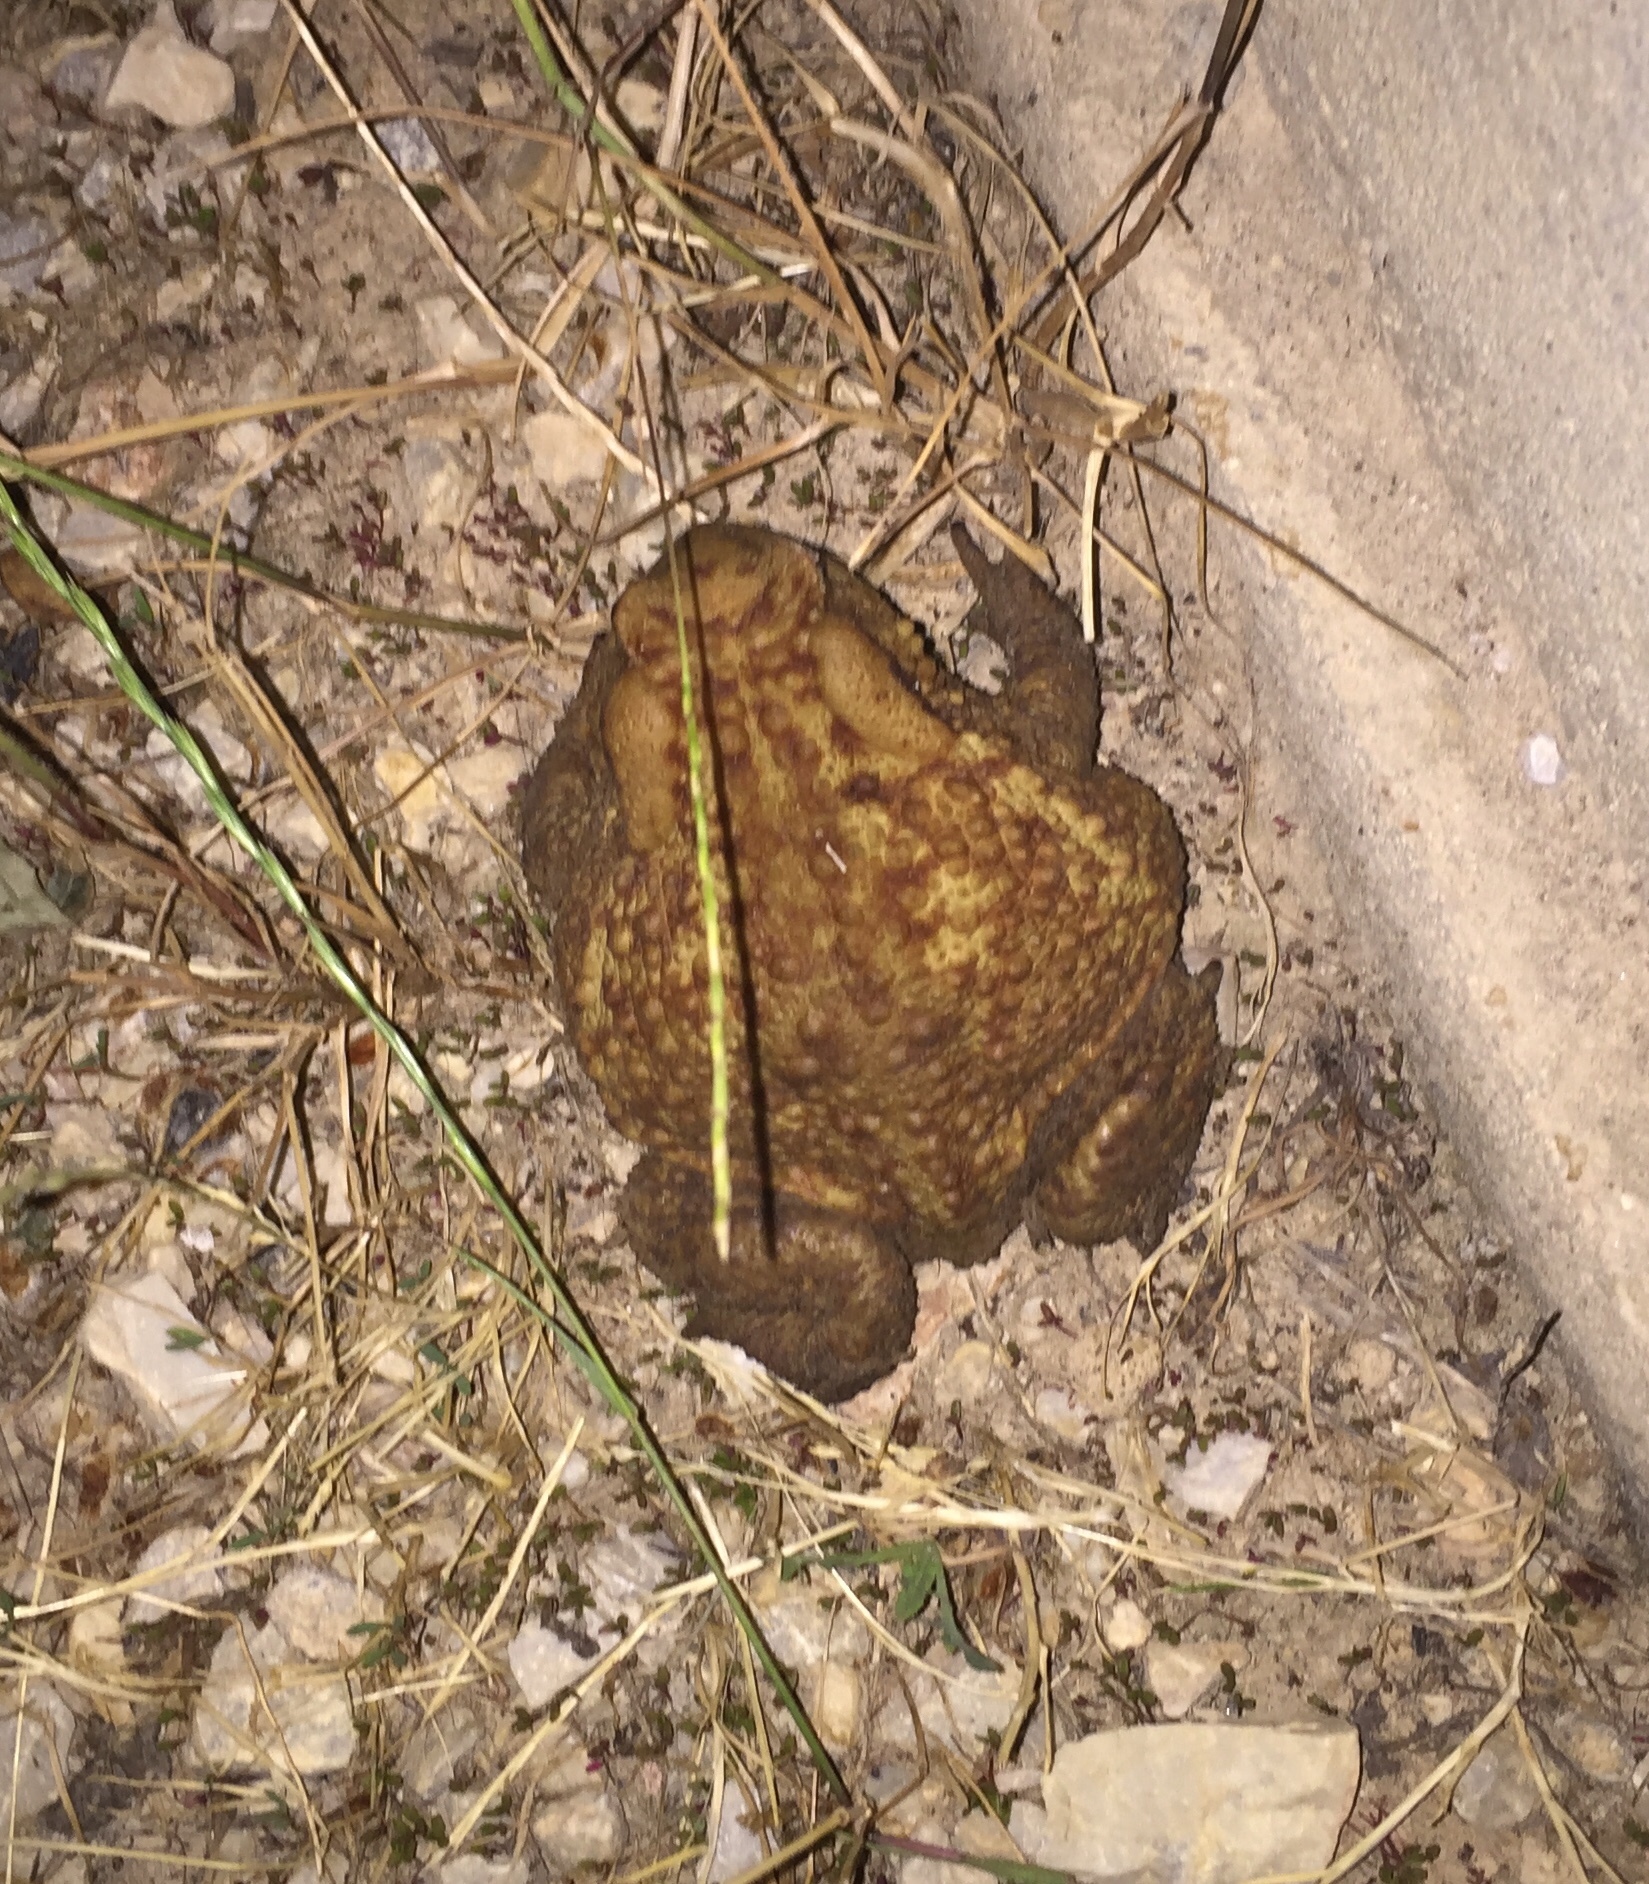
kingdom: Animalia
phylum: Chordata
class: Amphibia
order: Anura
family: Bufonidae
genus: Bufo
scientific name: Bufo bufo
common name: Common toad
